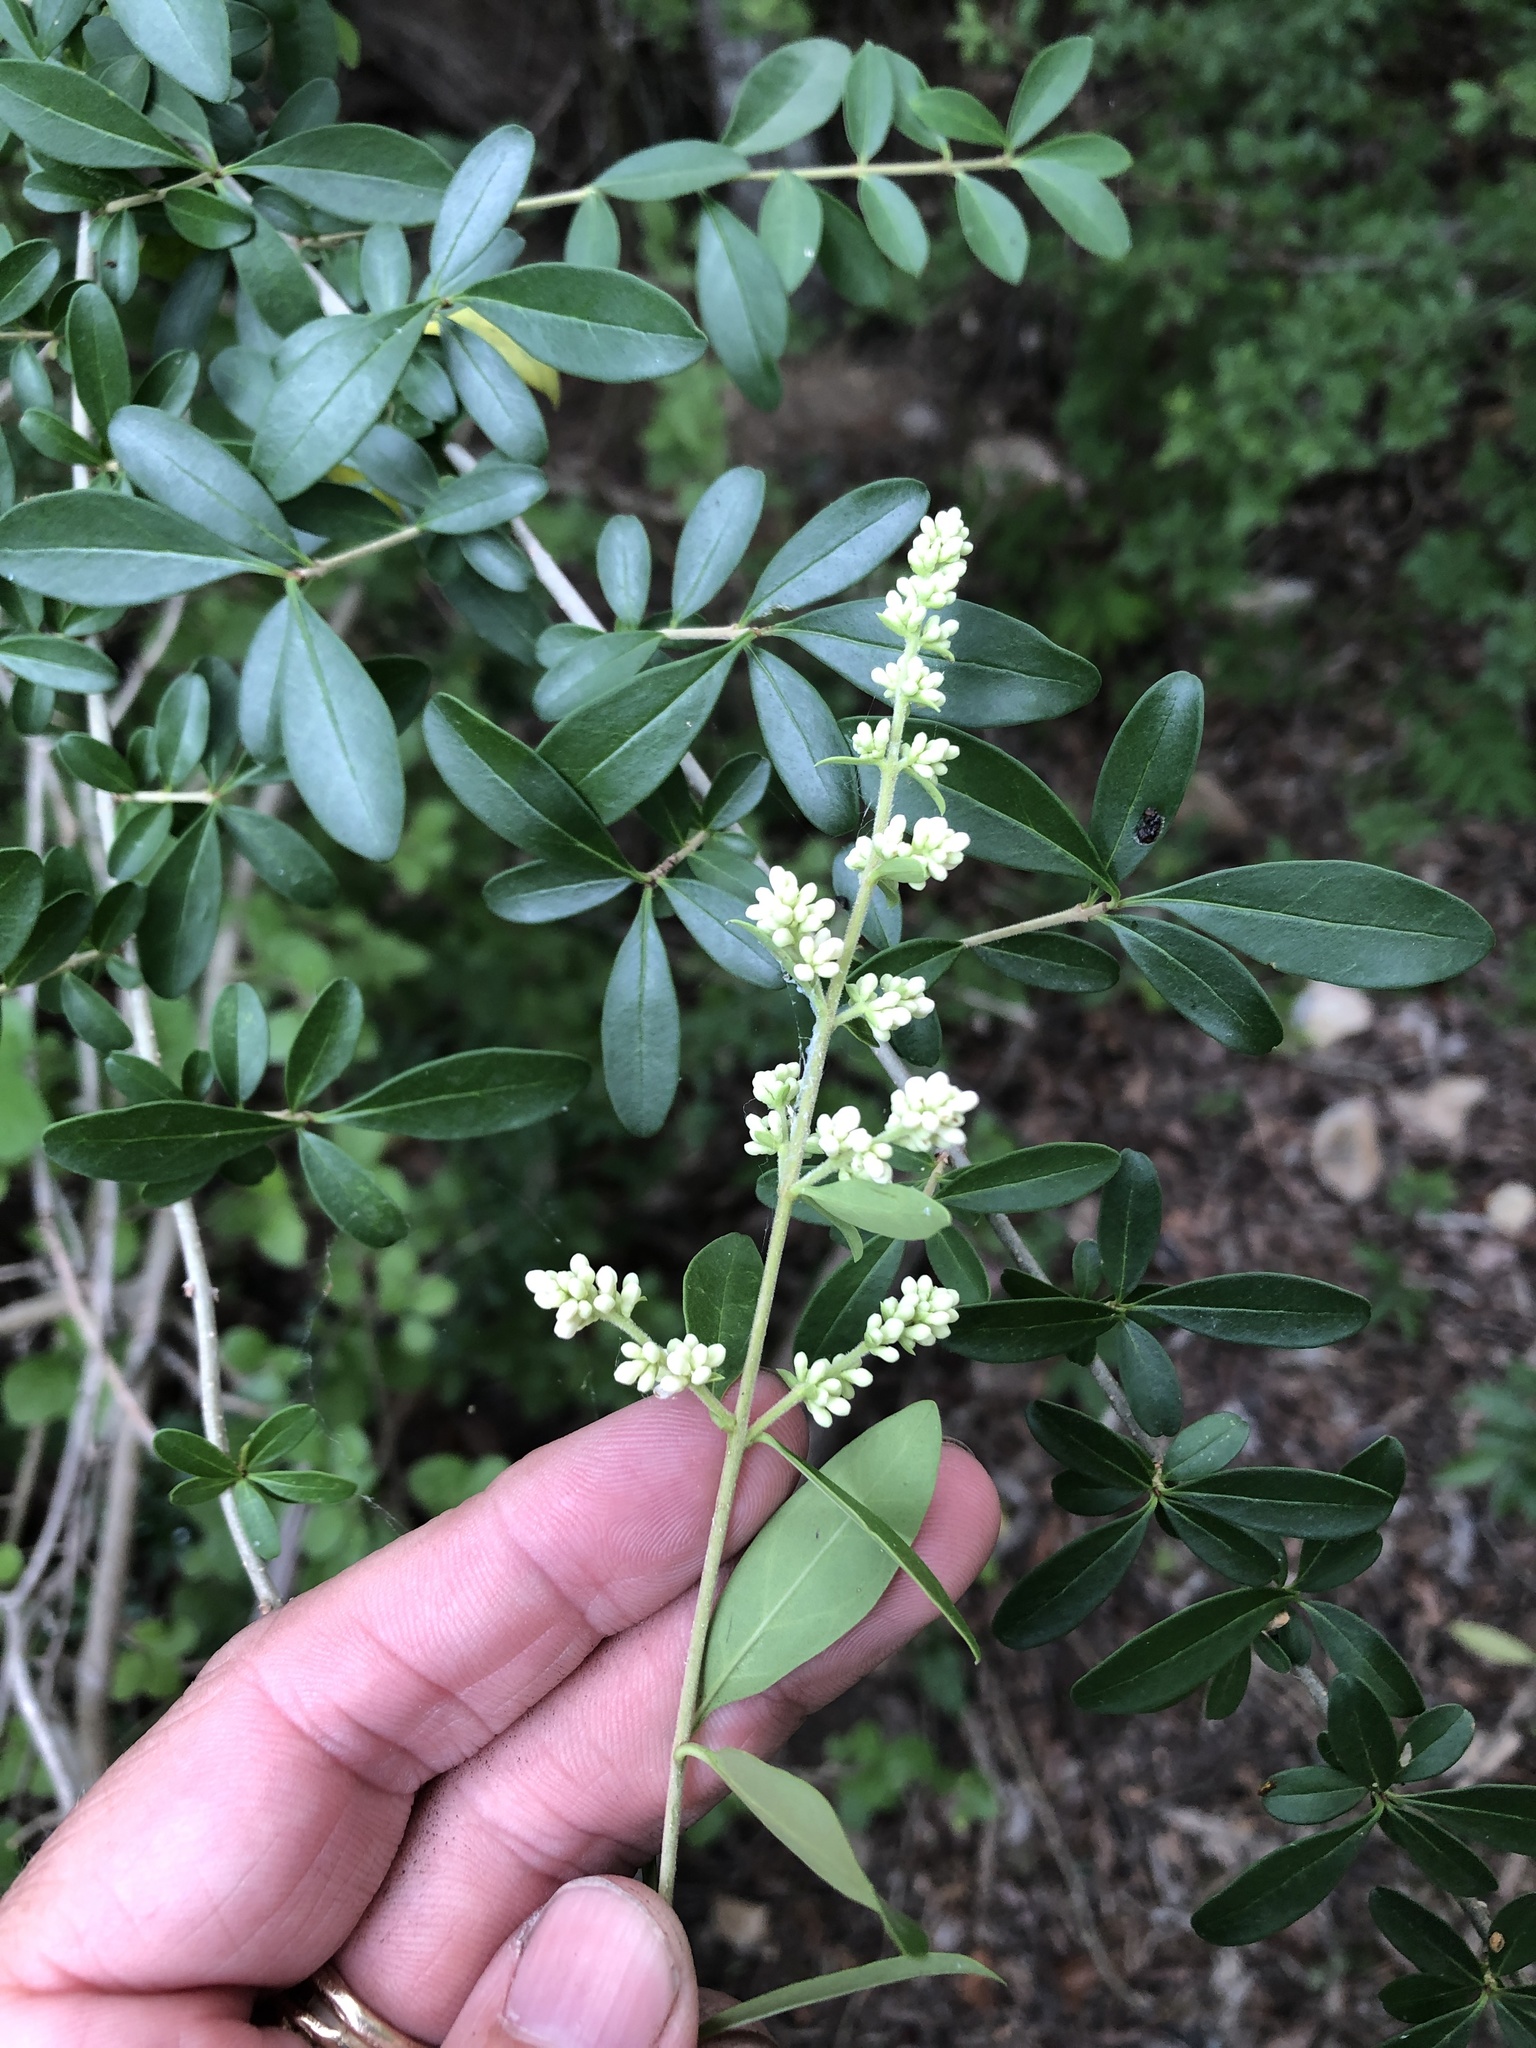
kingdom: Plantae
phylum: Tracheophyta
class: Magnoliopsida
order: Lamiales
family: Oleaceae
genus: Ligustrum
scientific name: Ligustrum quihoui
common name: Waxyleaf privet
